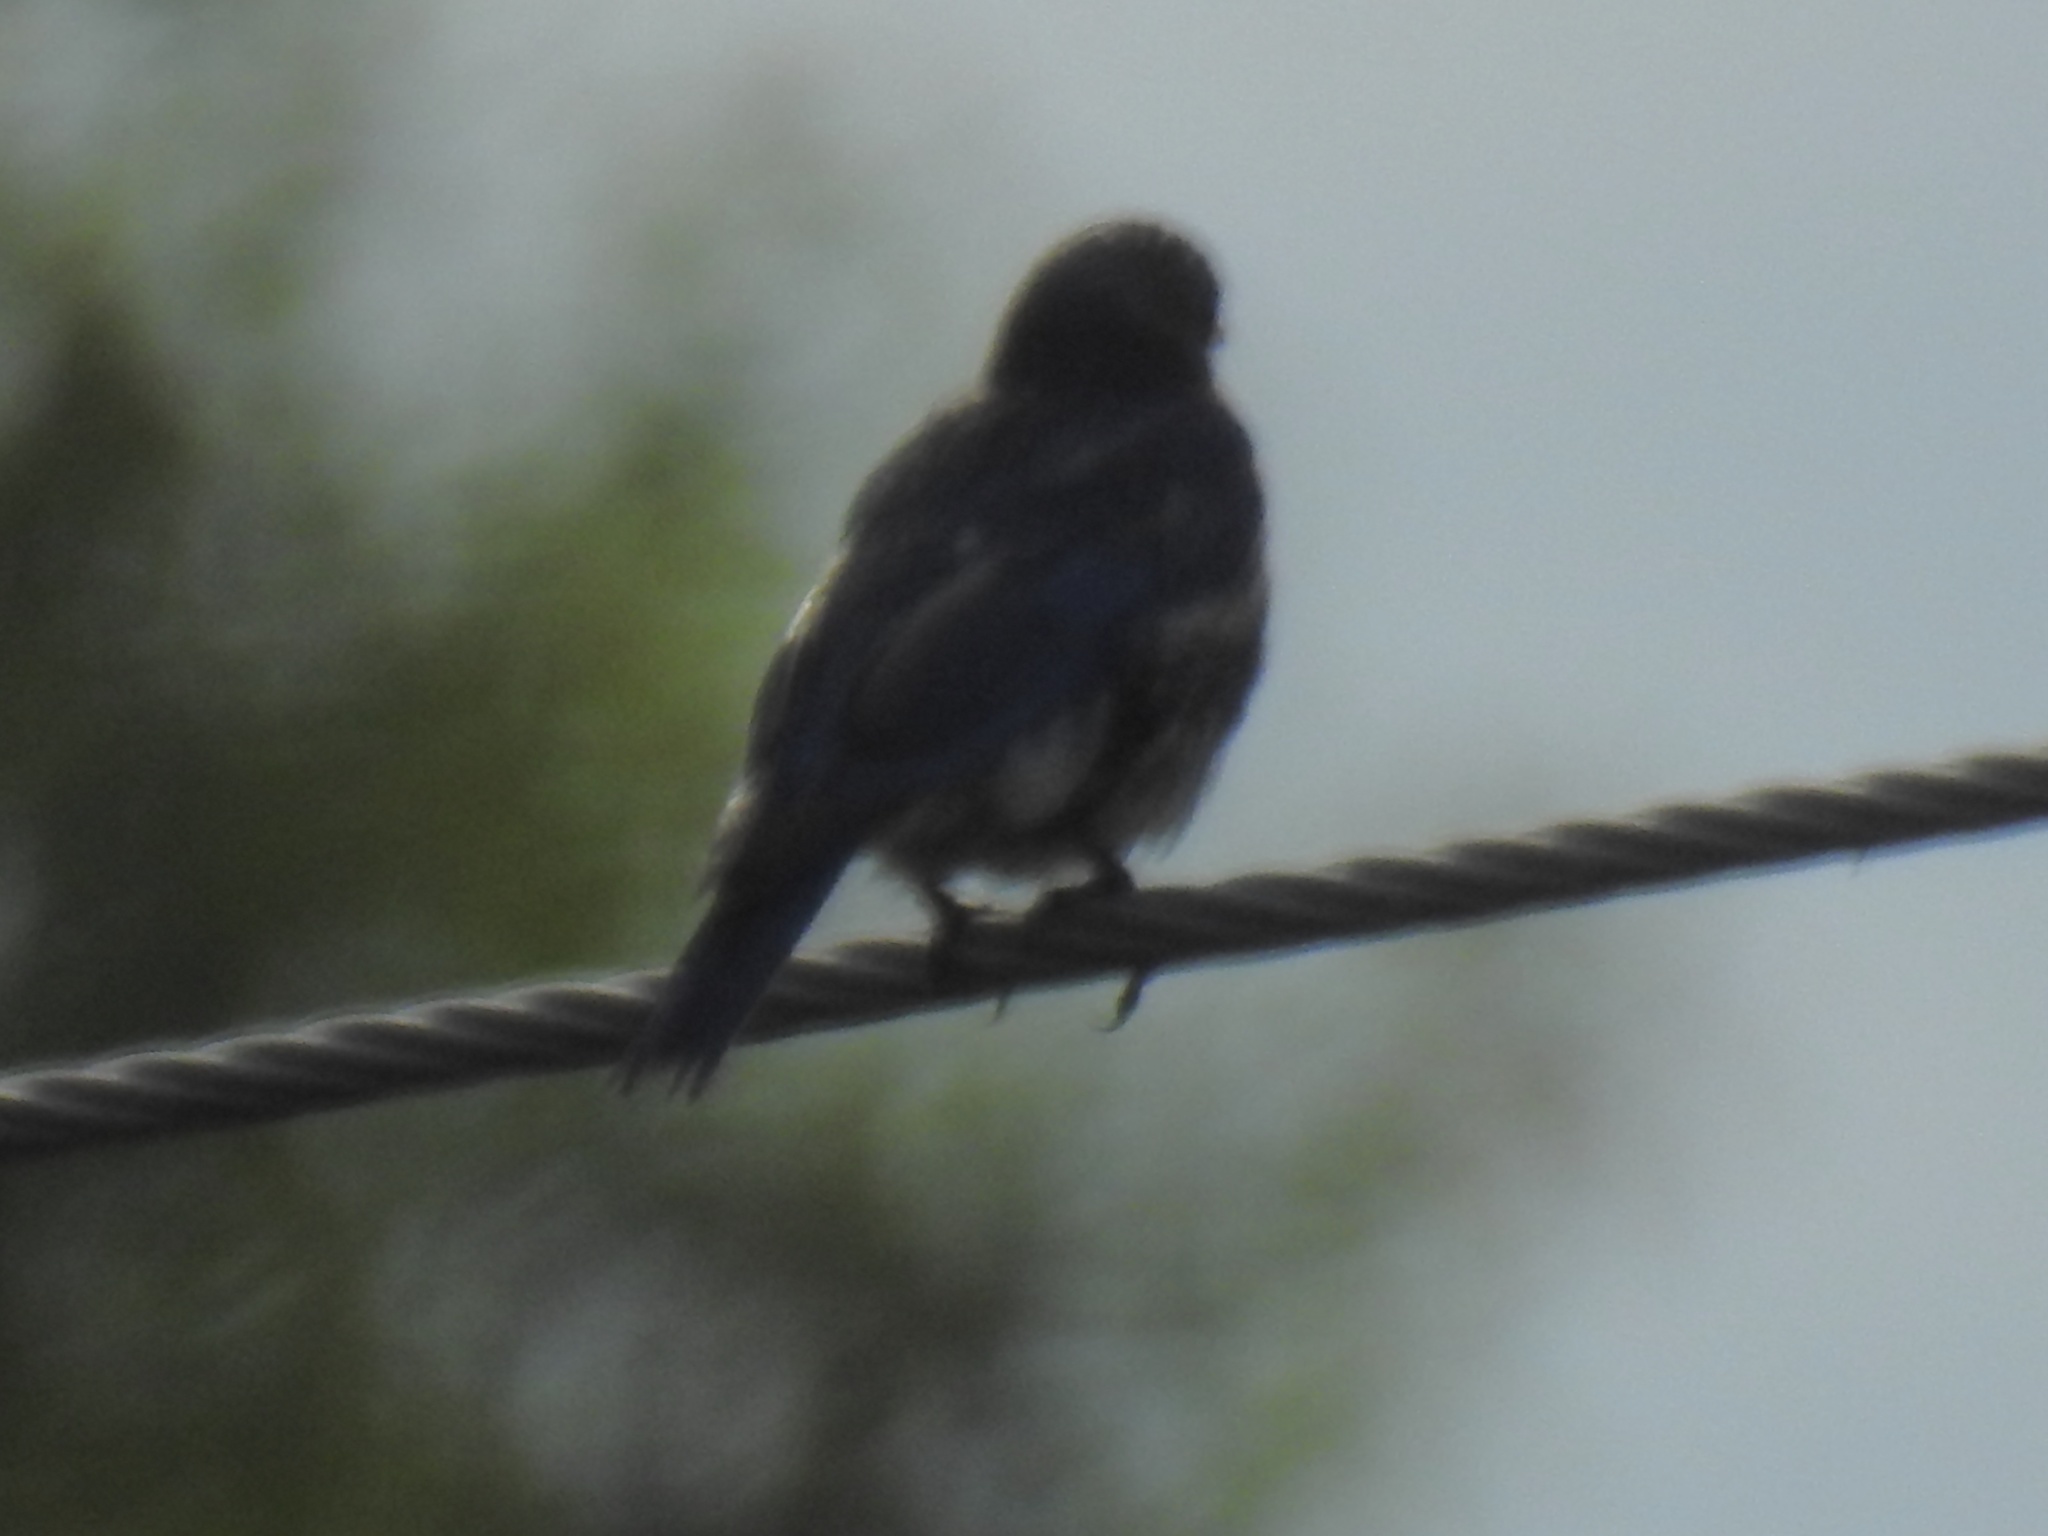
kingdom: Animalia
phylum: Chordata
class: Aves
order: Passeriformes
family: Turdidae
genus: Sialia
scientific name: Sialia sialis
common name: Eastern bluebird
